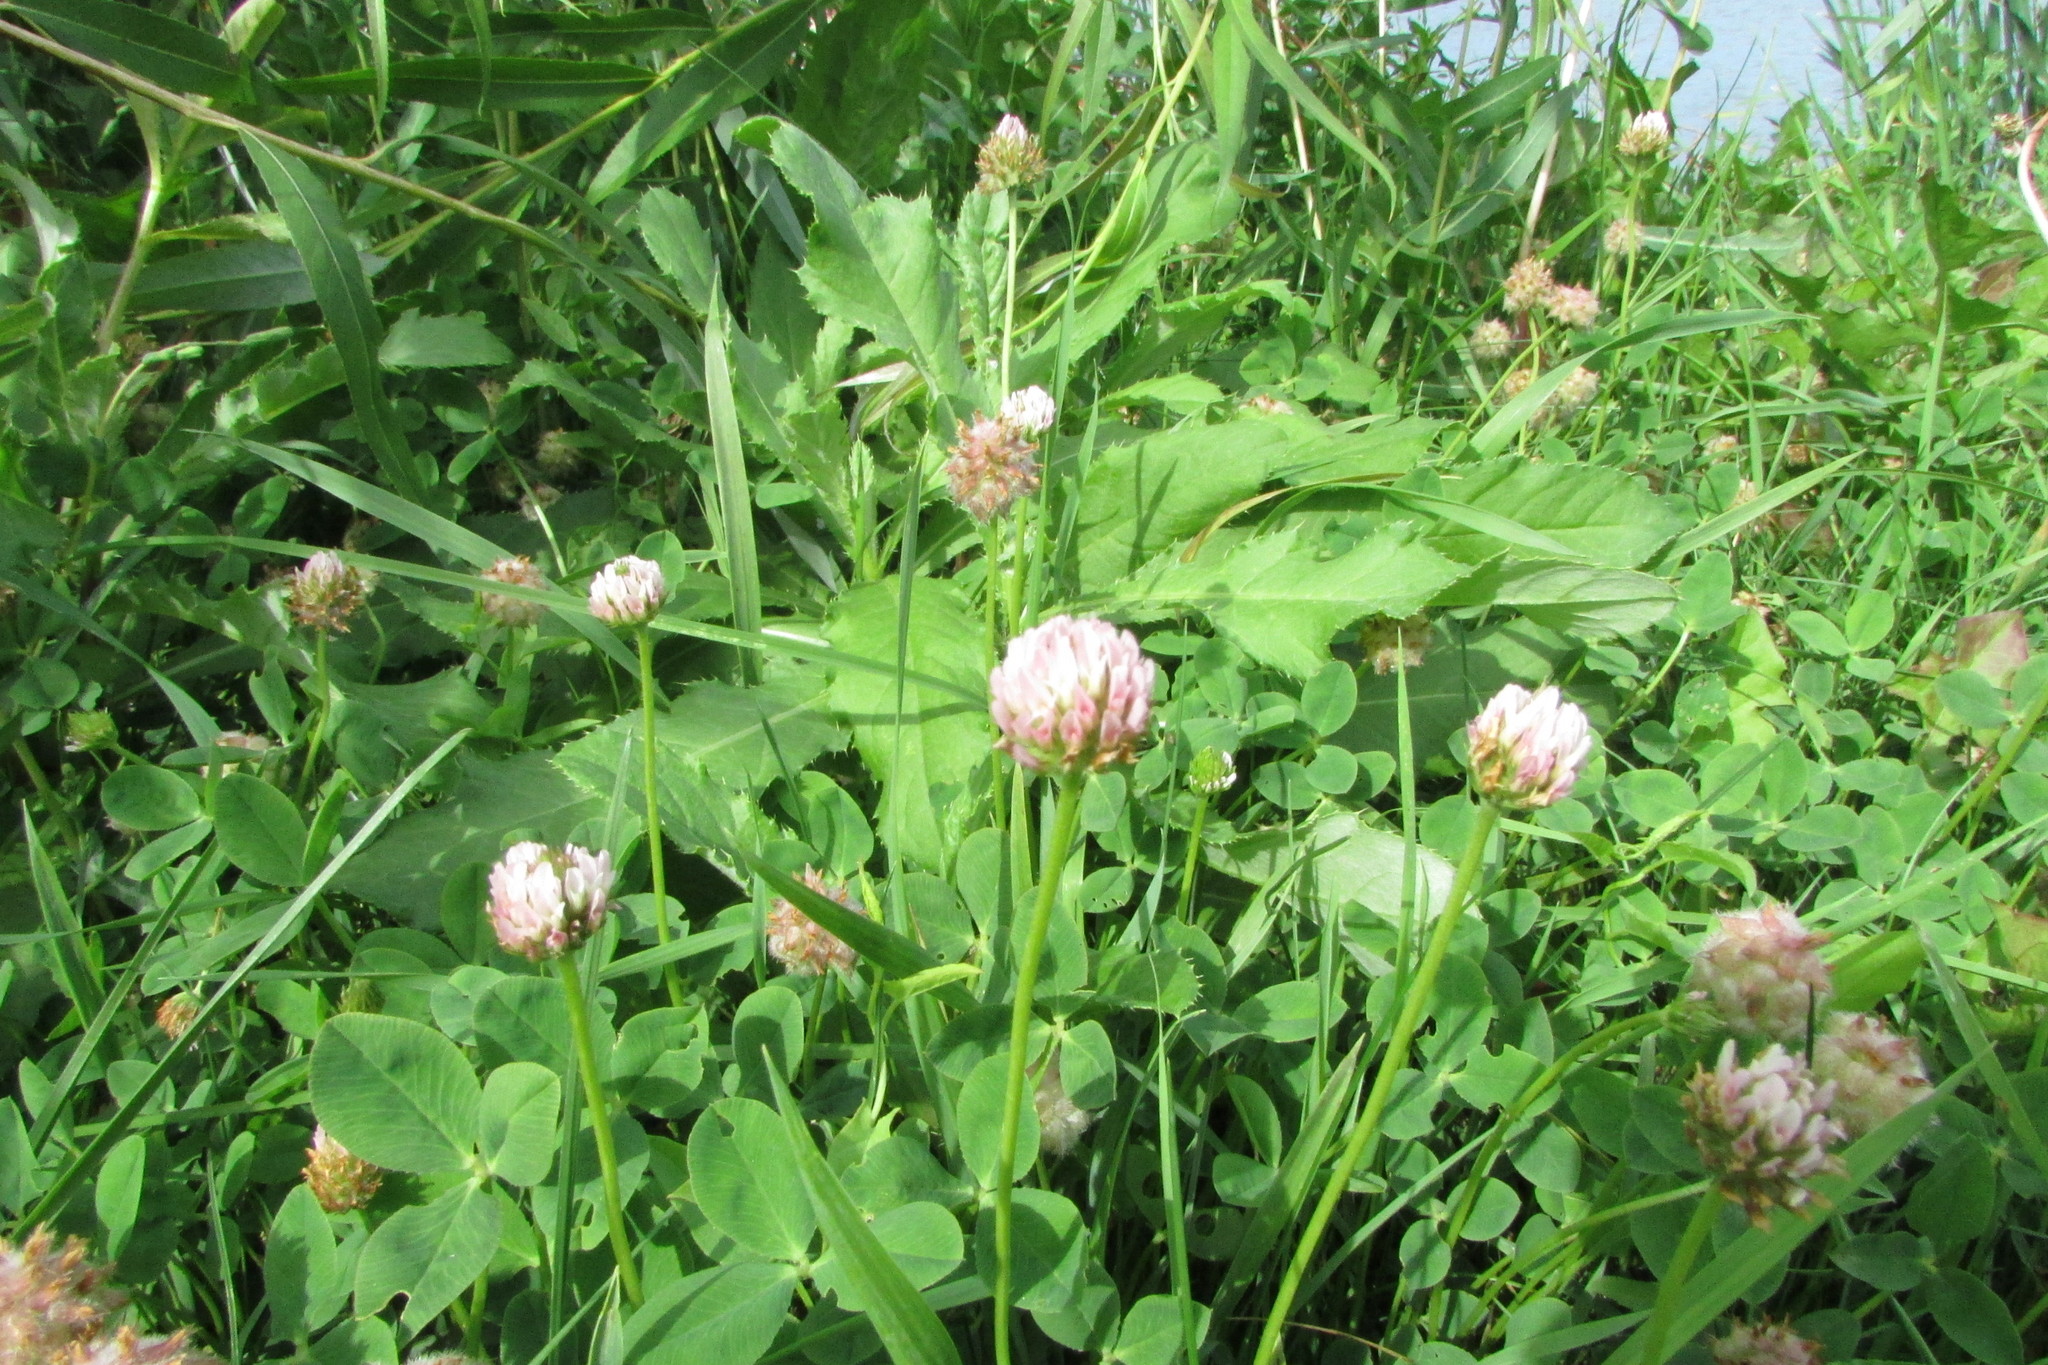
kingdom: Plantae
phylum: Tracheophyta
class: Magnoliopsida
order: Fabales
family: Fabaceae
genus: Trifolium
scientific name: Trifolium fragiferum
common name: Strawberry clover
